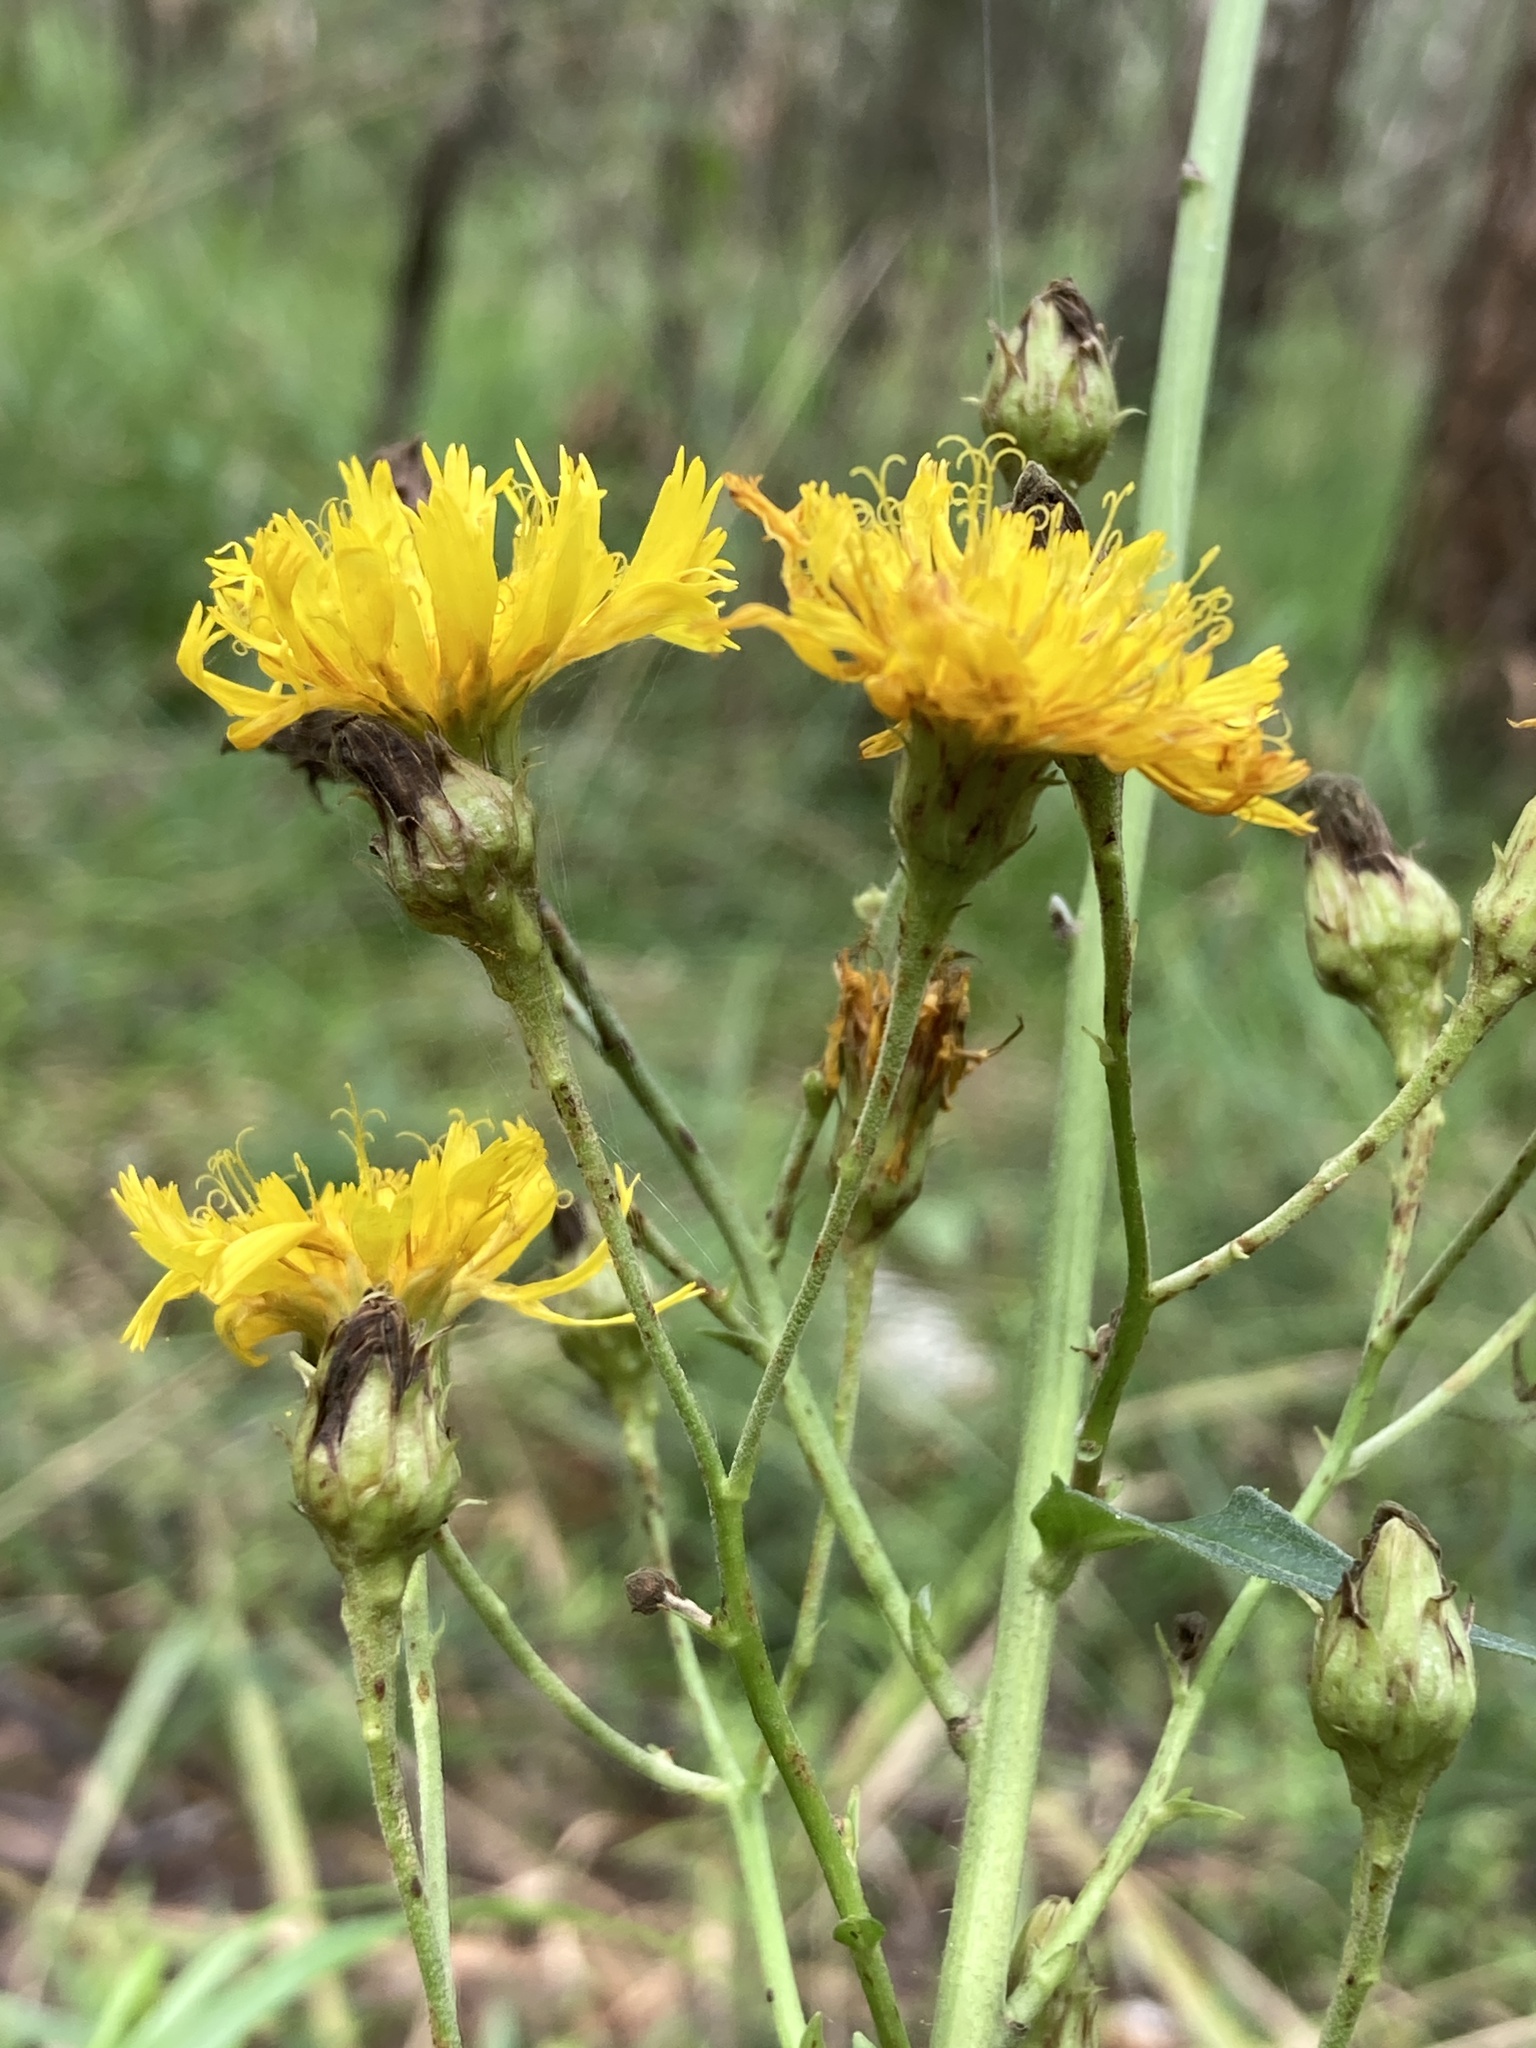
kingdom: Plantae
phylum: Tracheophyta
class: Magnoliopsida
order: Asterales
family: Asteraceae
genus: Hieracium
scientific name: Hieracium umbellatum
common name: Northern hawkweed
